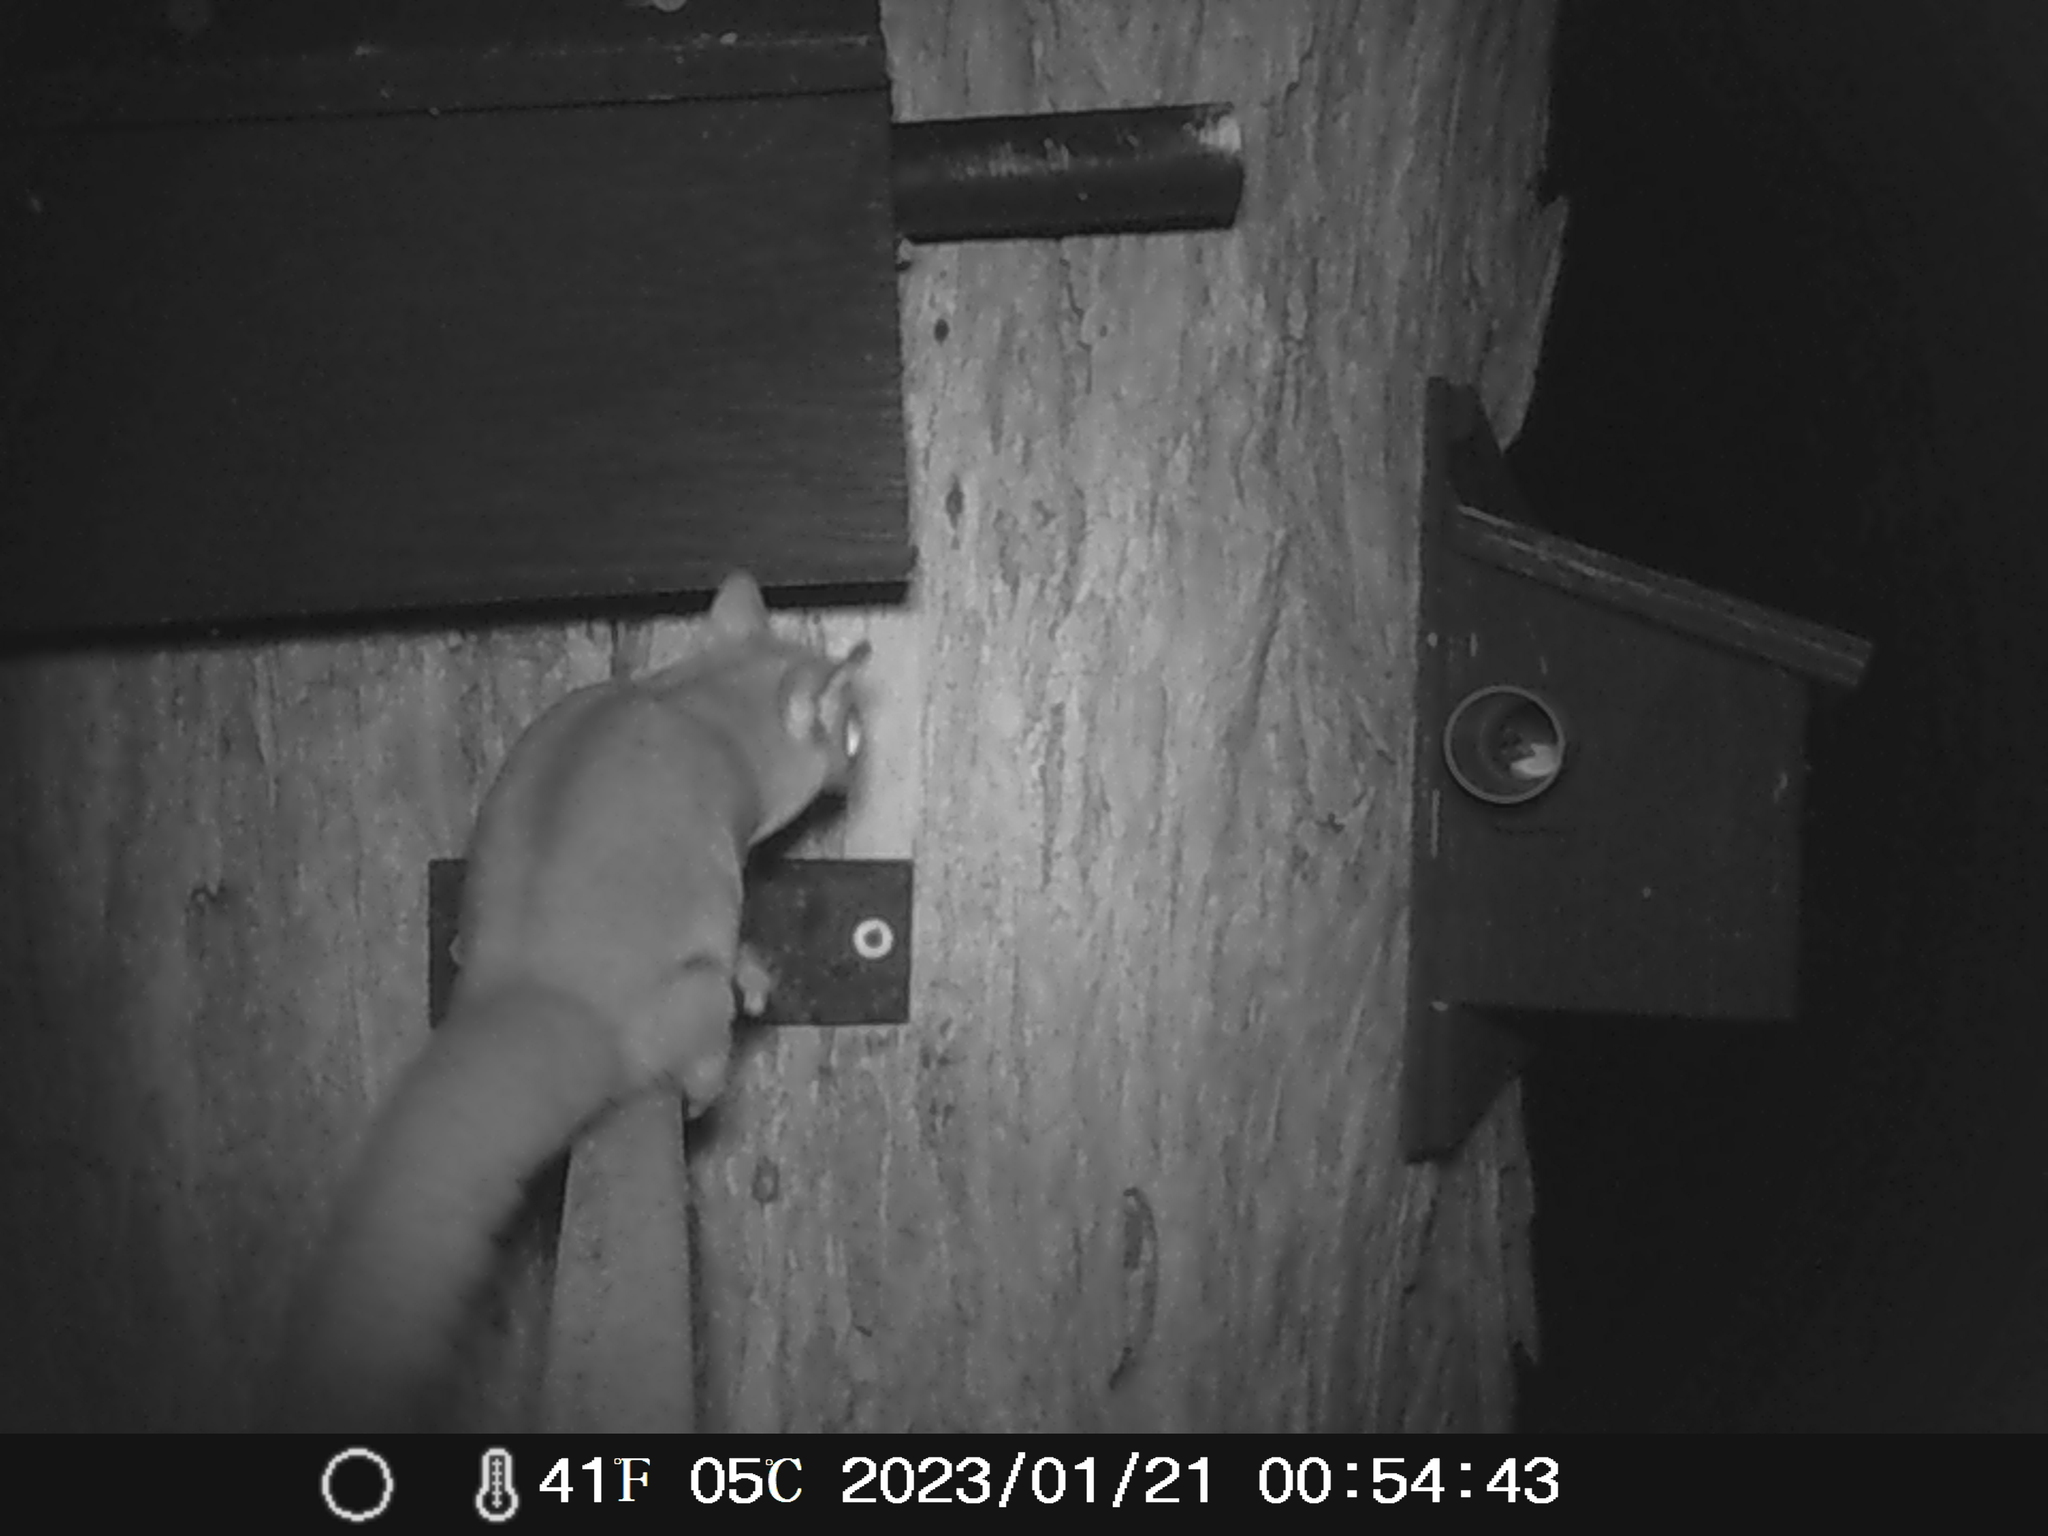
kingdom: Animalia
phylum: Chordata
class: Mammalia
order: Diprotodontia
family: Petauridae
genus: Petaurus
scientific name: Petaurus breviceps
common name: Sugar glider
